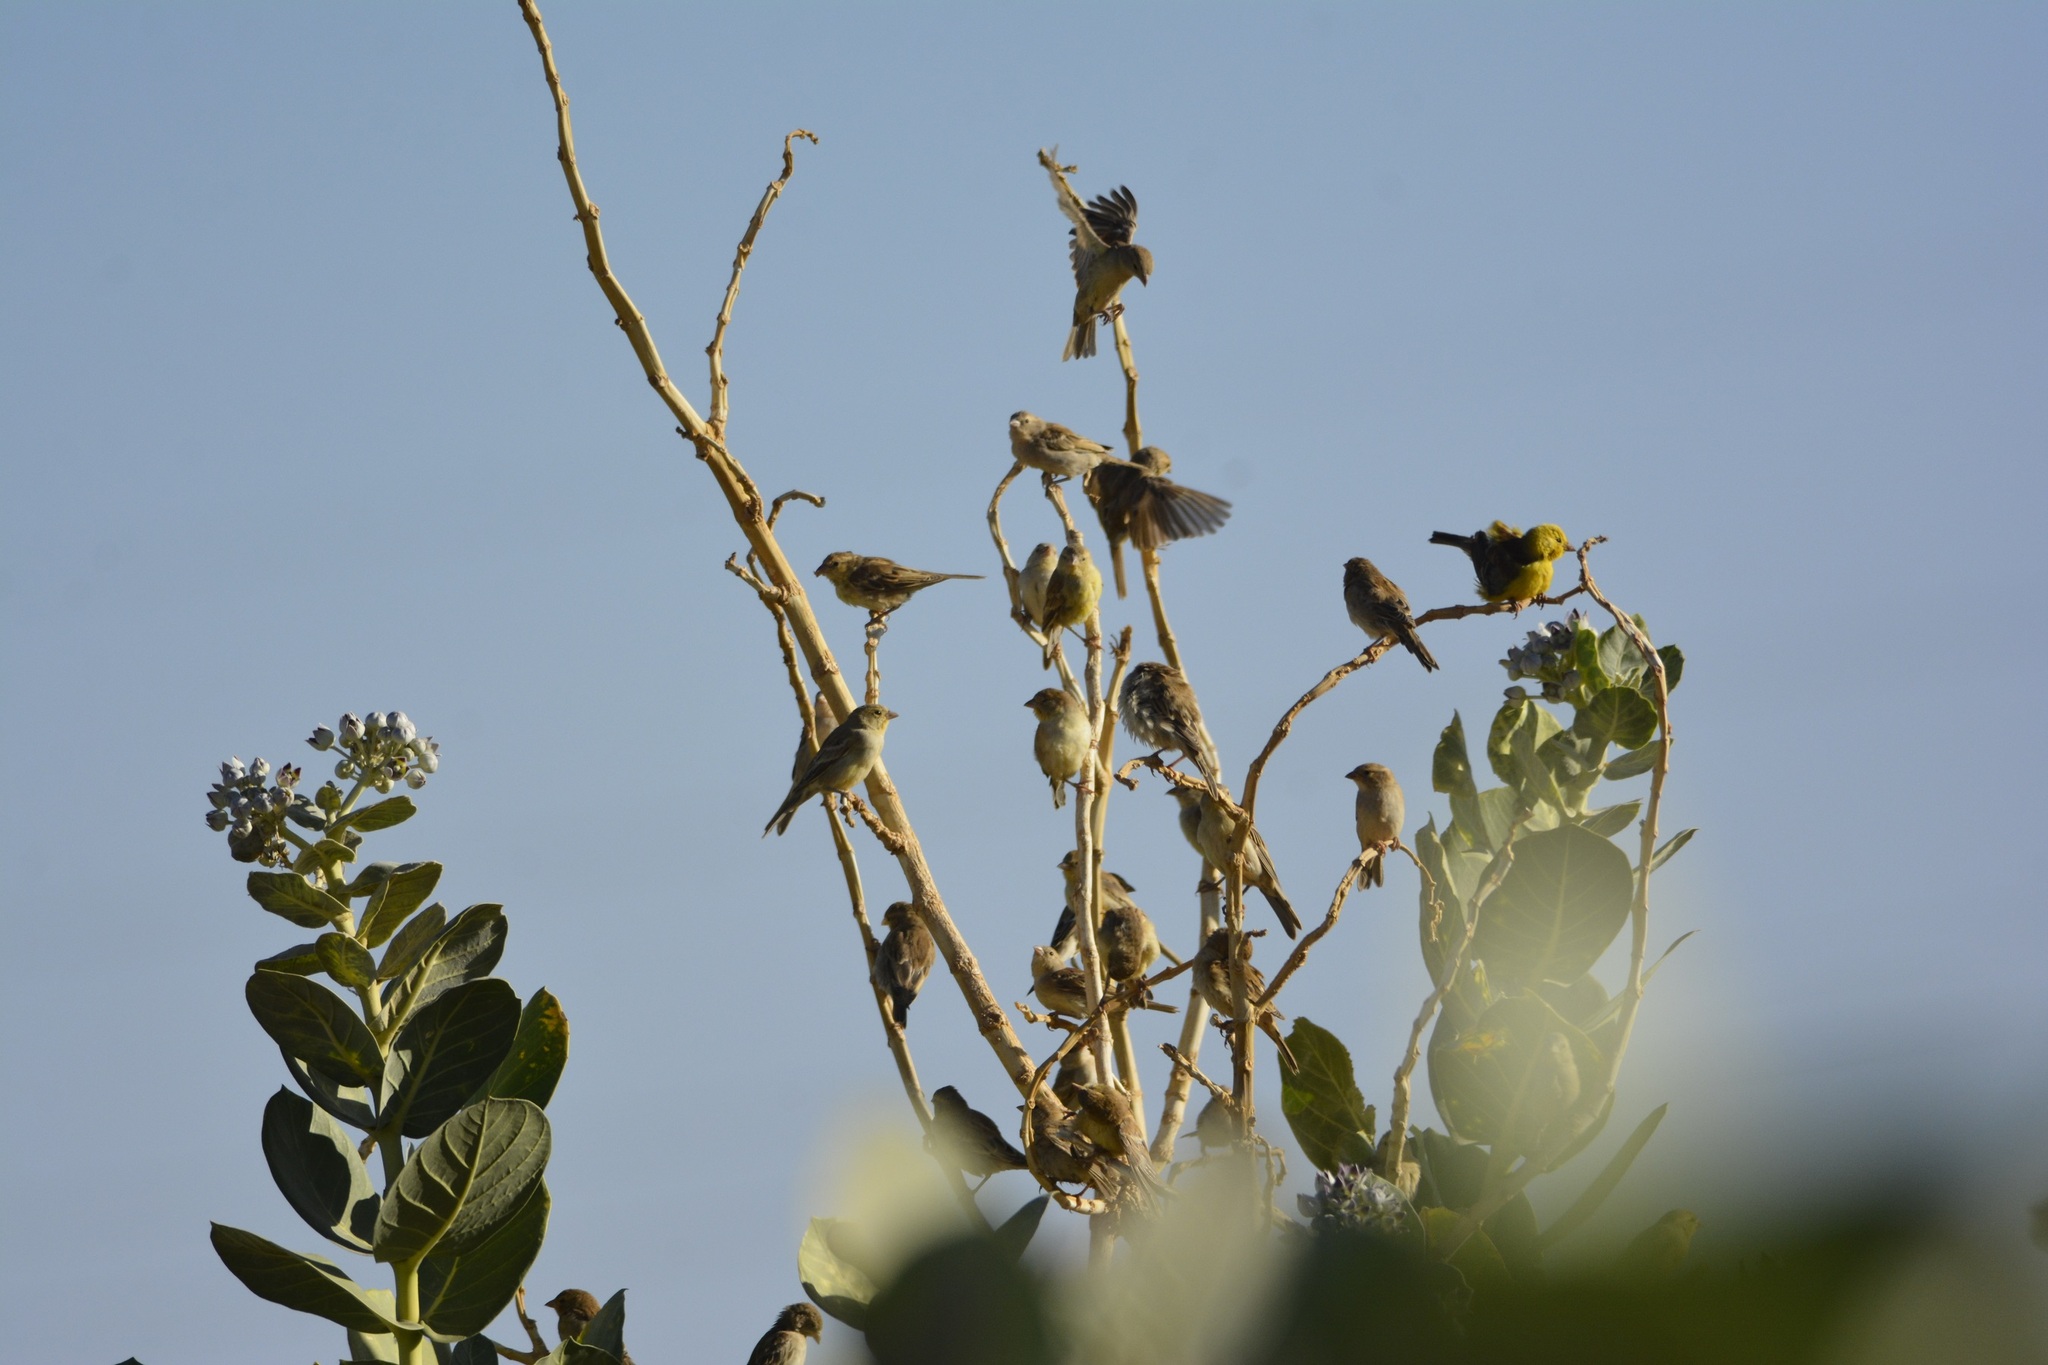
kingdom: Animalia
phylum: Chordata
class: Aves
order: Passeriformes
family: Passeridae
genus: Passer
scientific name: Passer luteus
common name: Sudan golden sparrow
